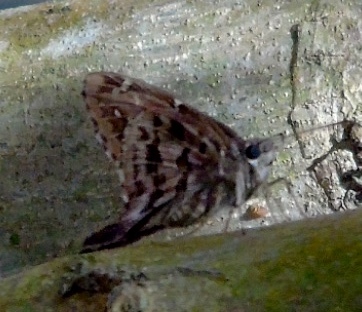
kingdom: Animalia
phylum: Arthropoda
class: Insecta
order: Lepidoptera
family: Hesperiidae
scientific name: Hesperiidae
